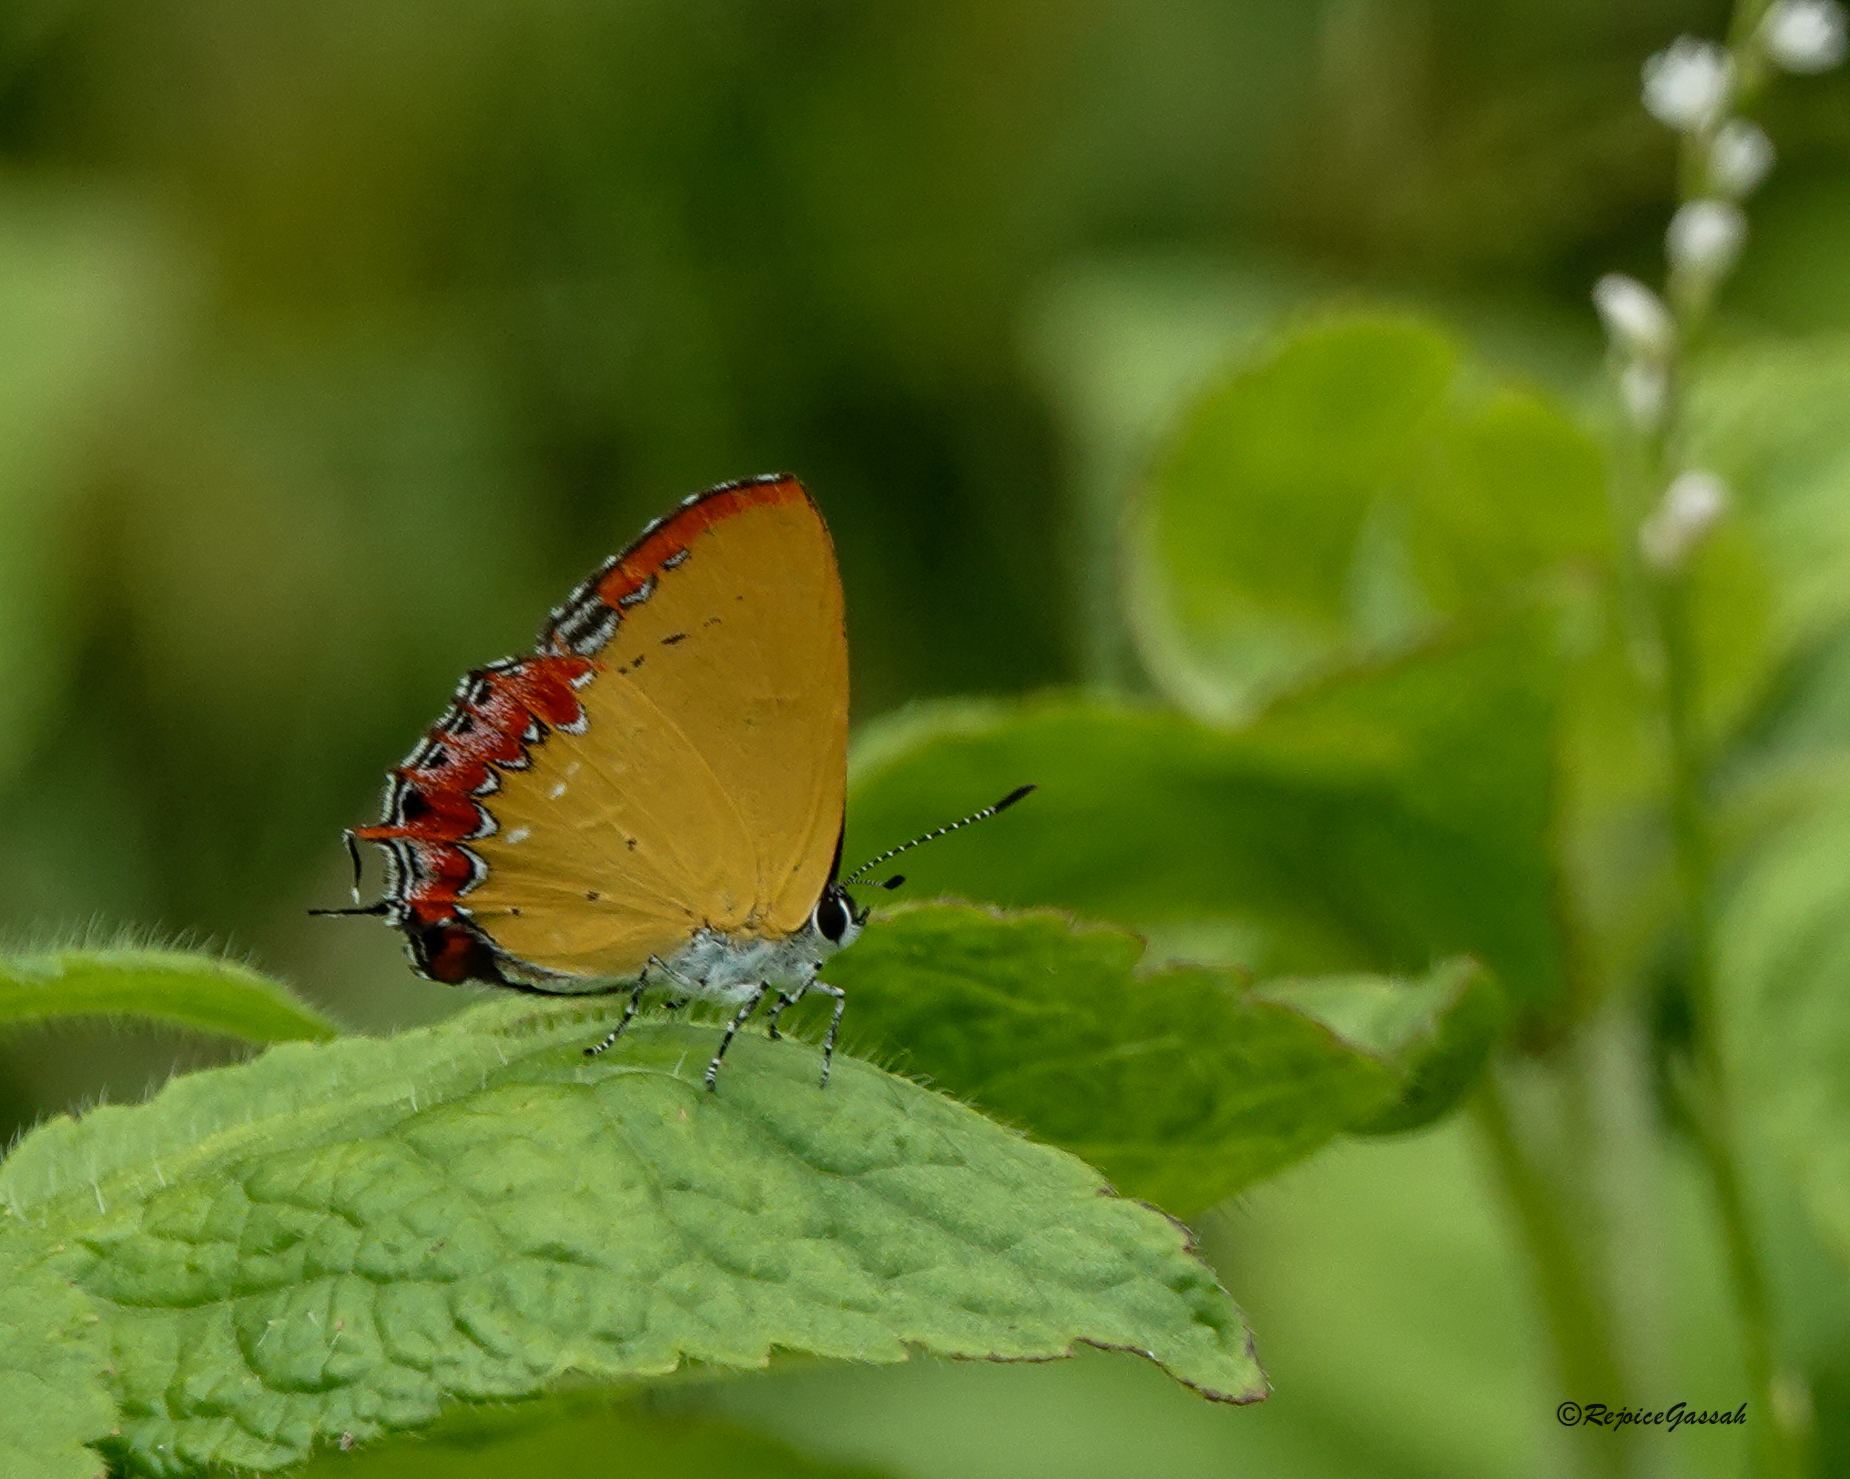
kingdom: Animalia
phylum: Arthropoda
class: Insecta
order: Lepidoptera
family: Lycaenidae
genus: Heliophorus
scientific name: Heliophorus epicles
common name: Purple sapphire
